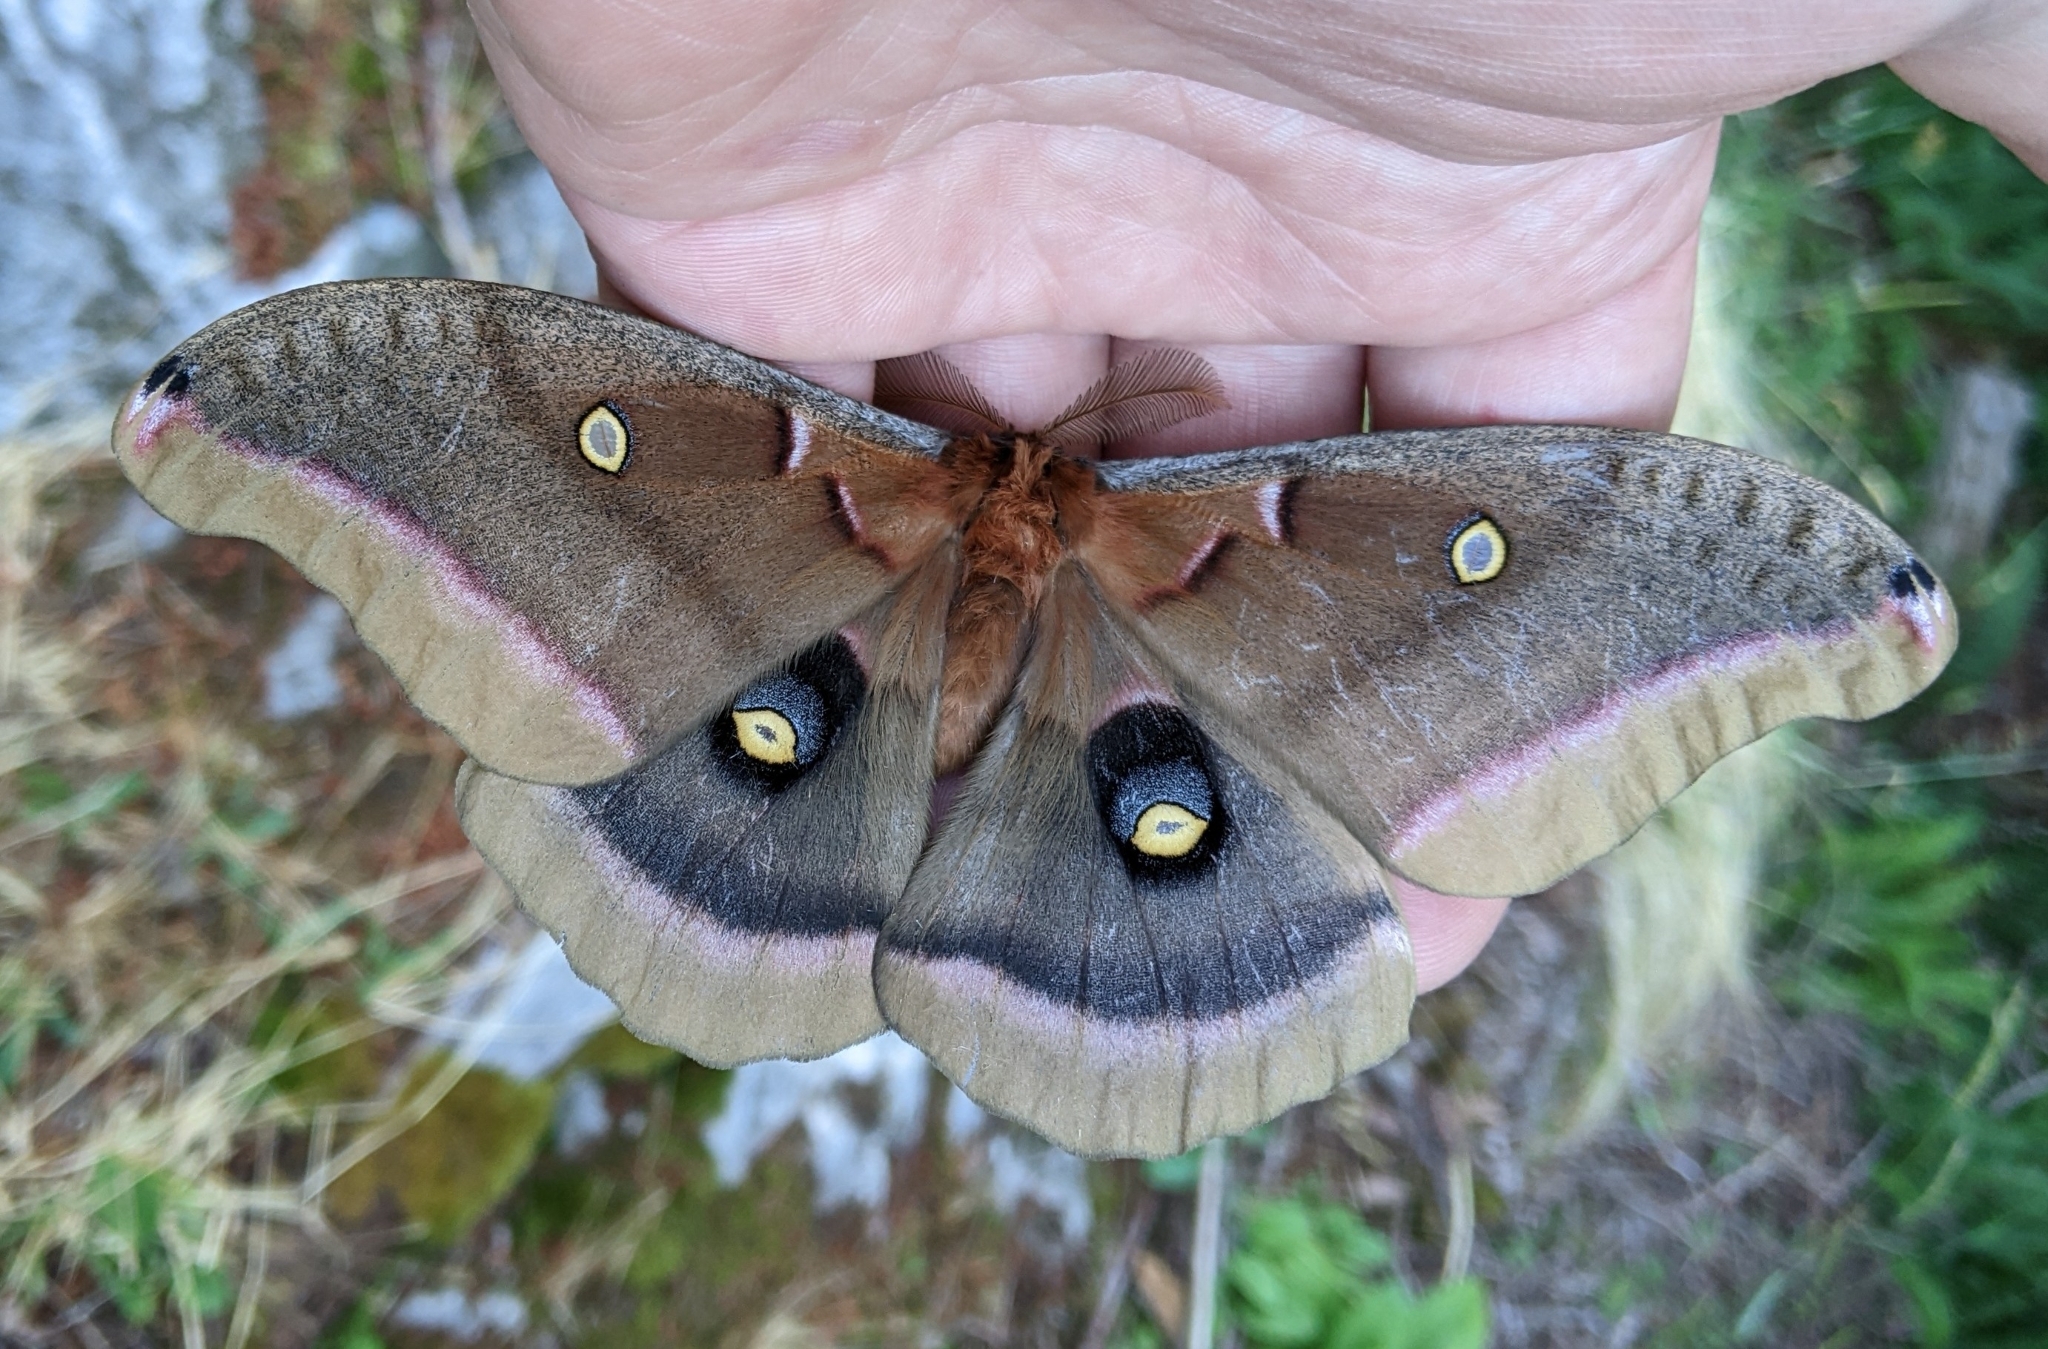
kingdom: Animalia
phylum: Arthropoda
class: Insecta
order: Lepidoptera
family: Saturniidae
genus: Antheraea
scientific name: Antheraea polyphemus
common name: Polyphemus moth
